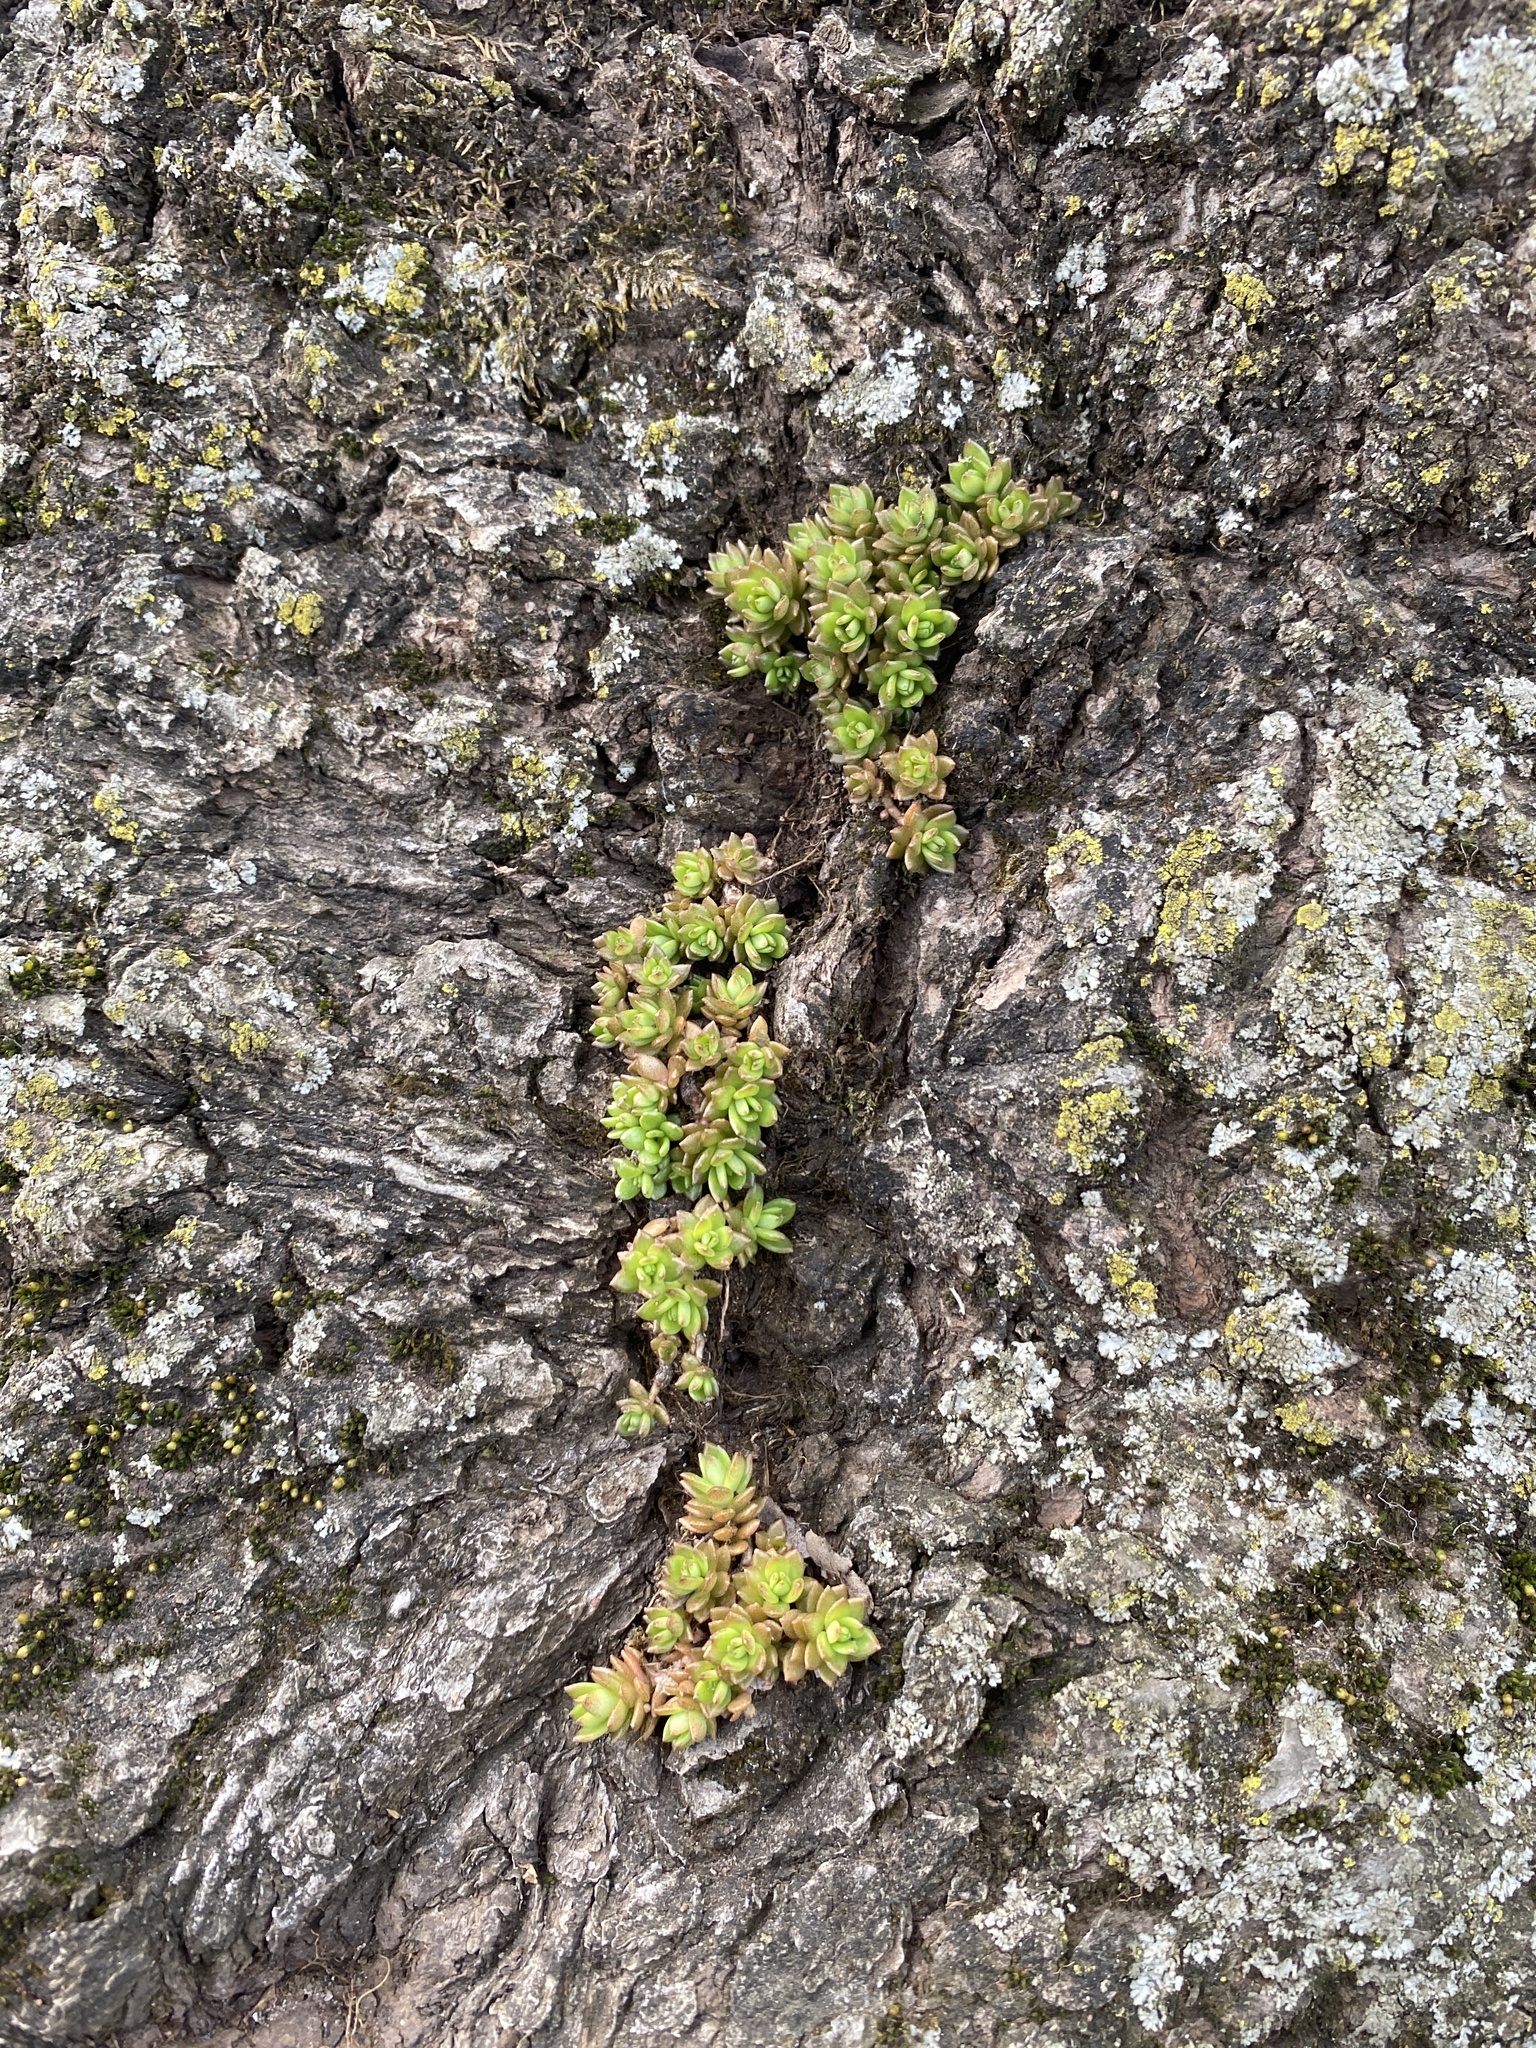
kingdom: Plantae
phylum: Tracheophyta
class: Magnoliopsida
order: Saxifragales
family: Crassulaceae
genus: Sedum
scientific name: Sedum sarmentosum
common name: Stringy stonecrop
